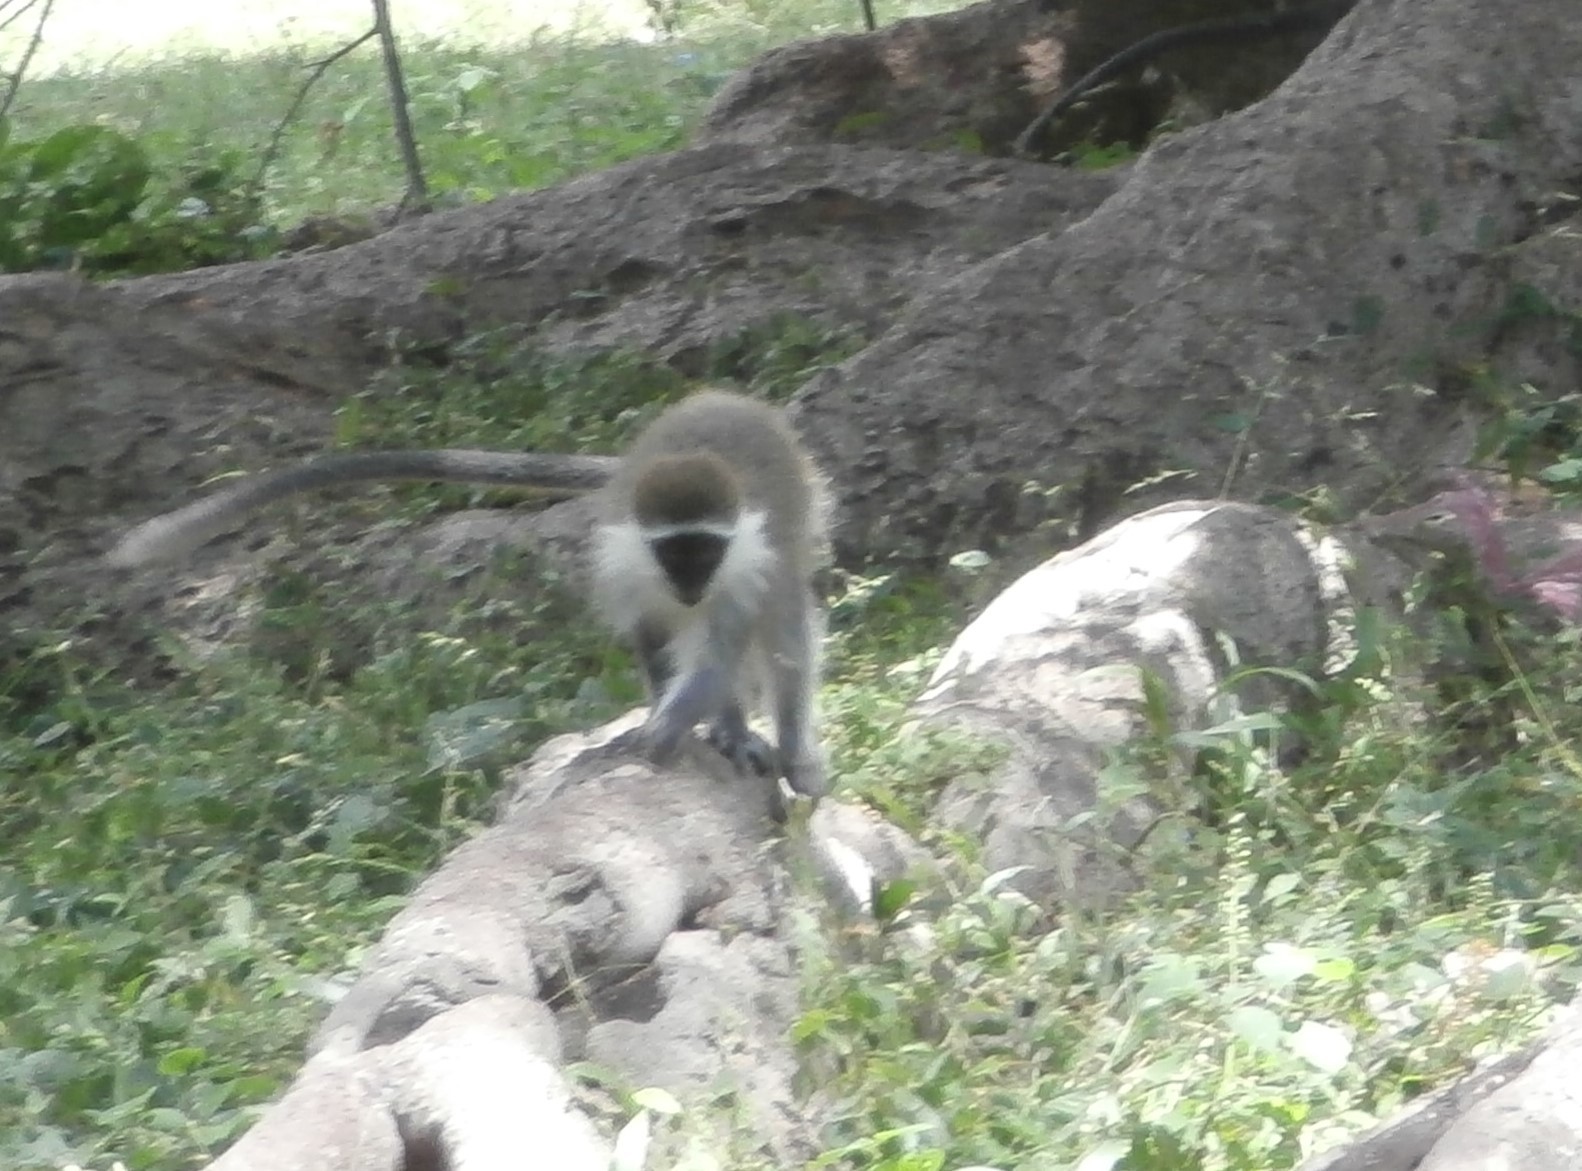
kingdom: Animalia
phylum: Chordata
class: Mammalia
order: Primates
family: Cercopithecidae
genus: Chlorocebus
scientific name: Chlorocebus aethiops
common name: Grivet
